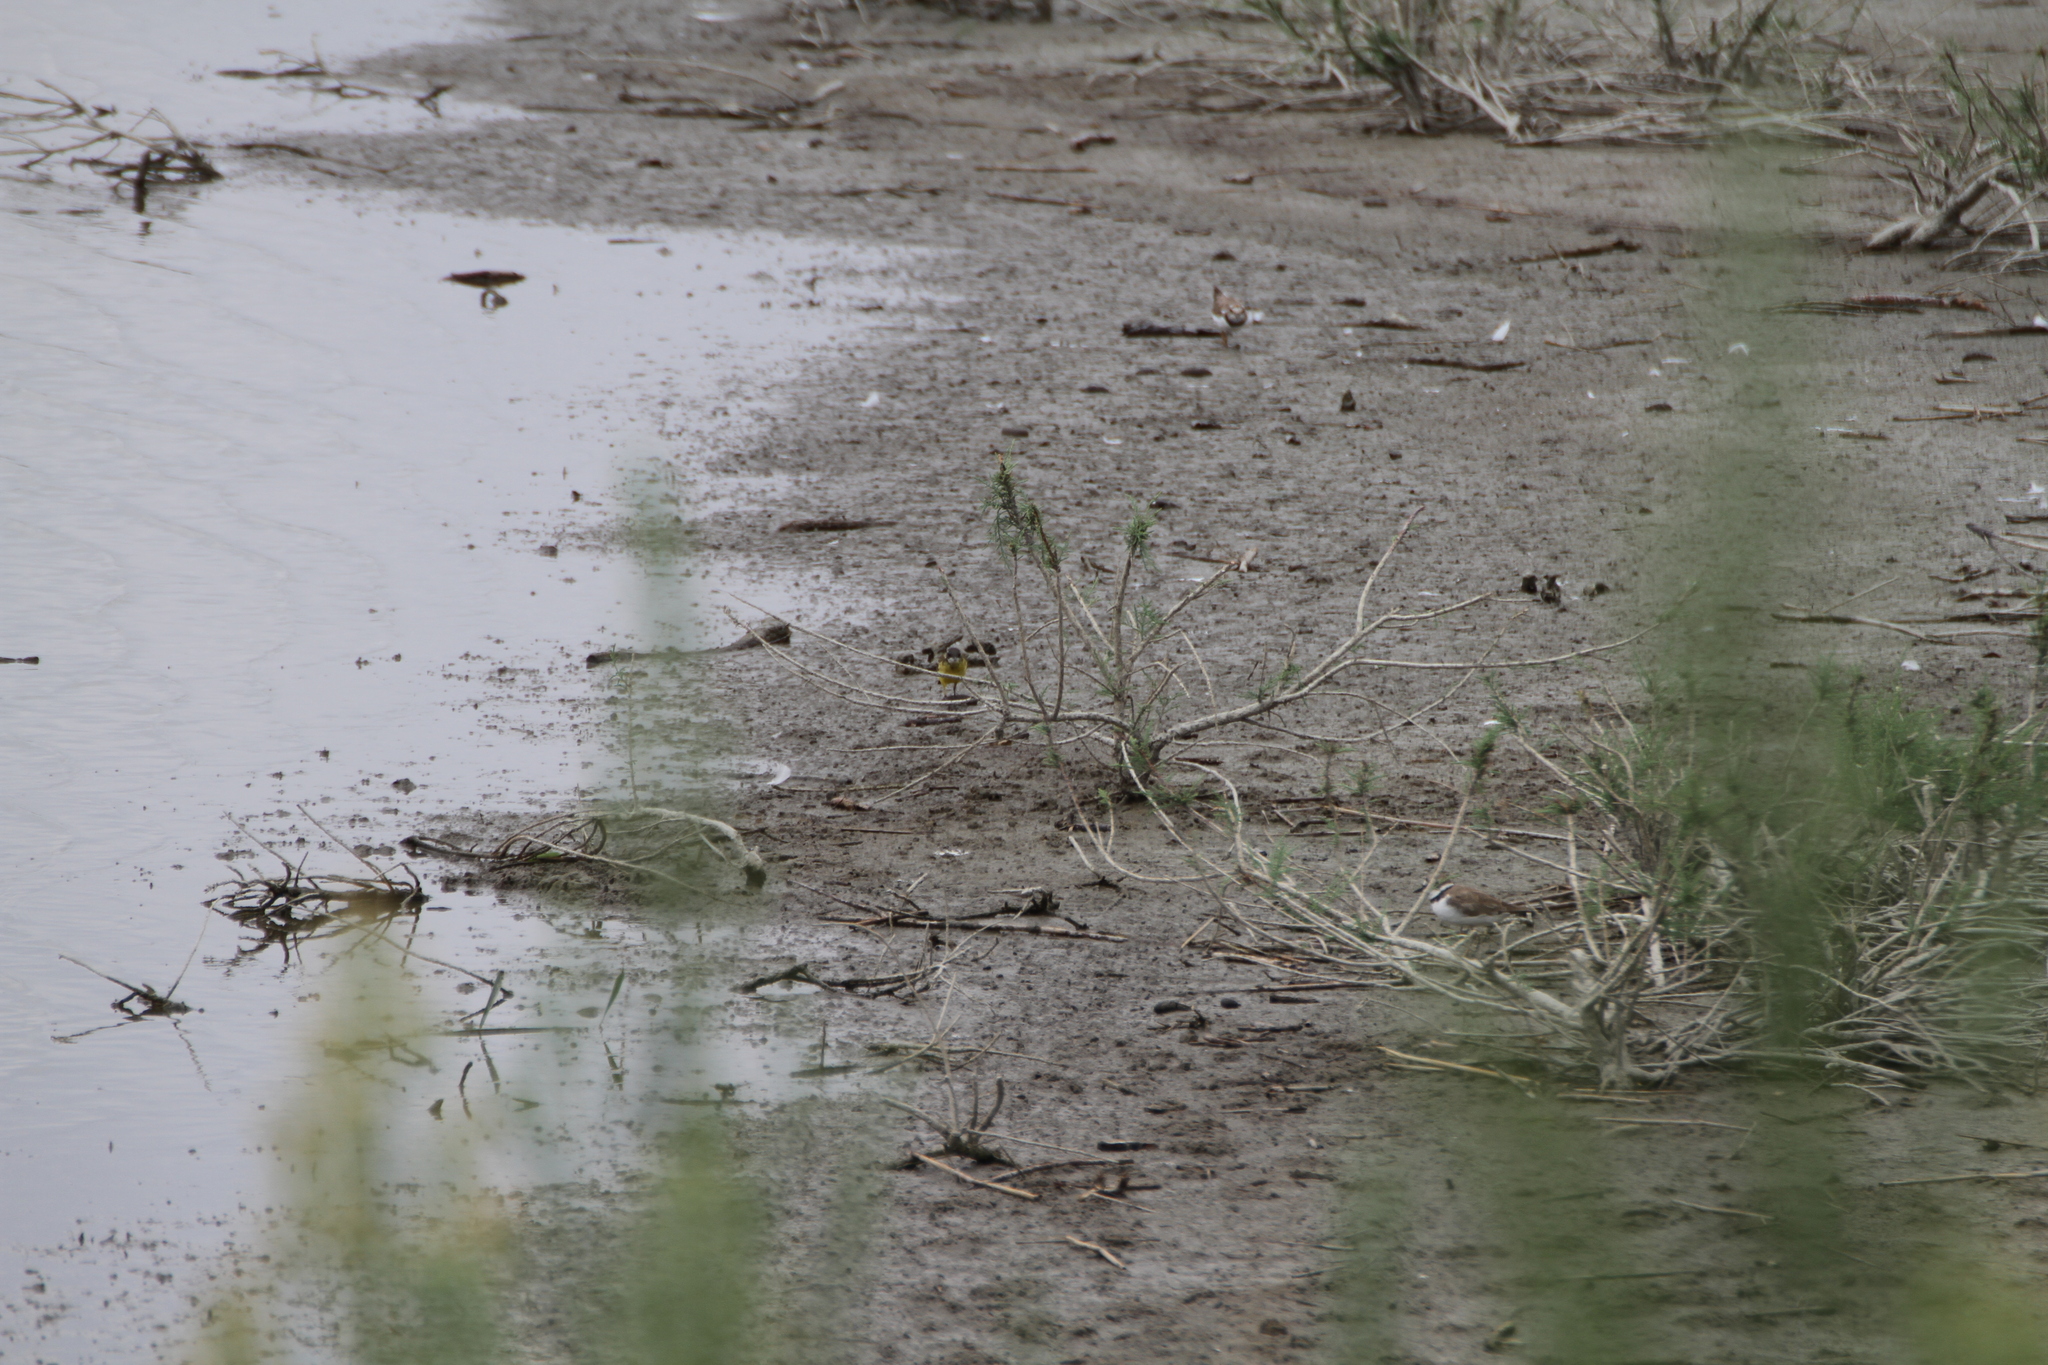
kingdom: Animalia
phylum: Chordata
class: Aves
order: Passeriformes
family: Motacillidae
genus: Motacilla
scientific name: Motacilla flava
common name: Western yellow wagtail
